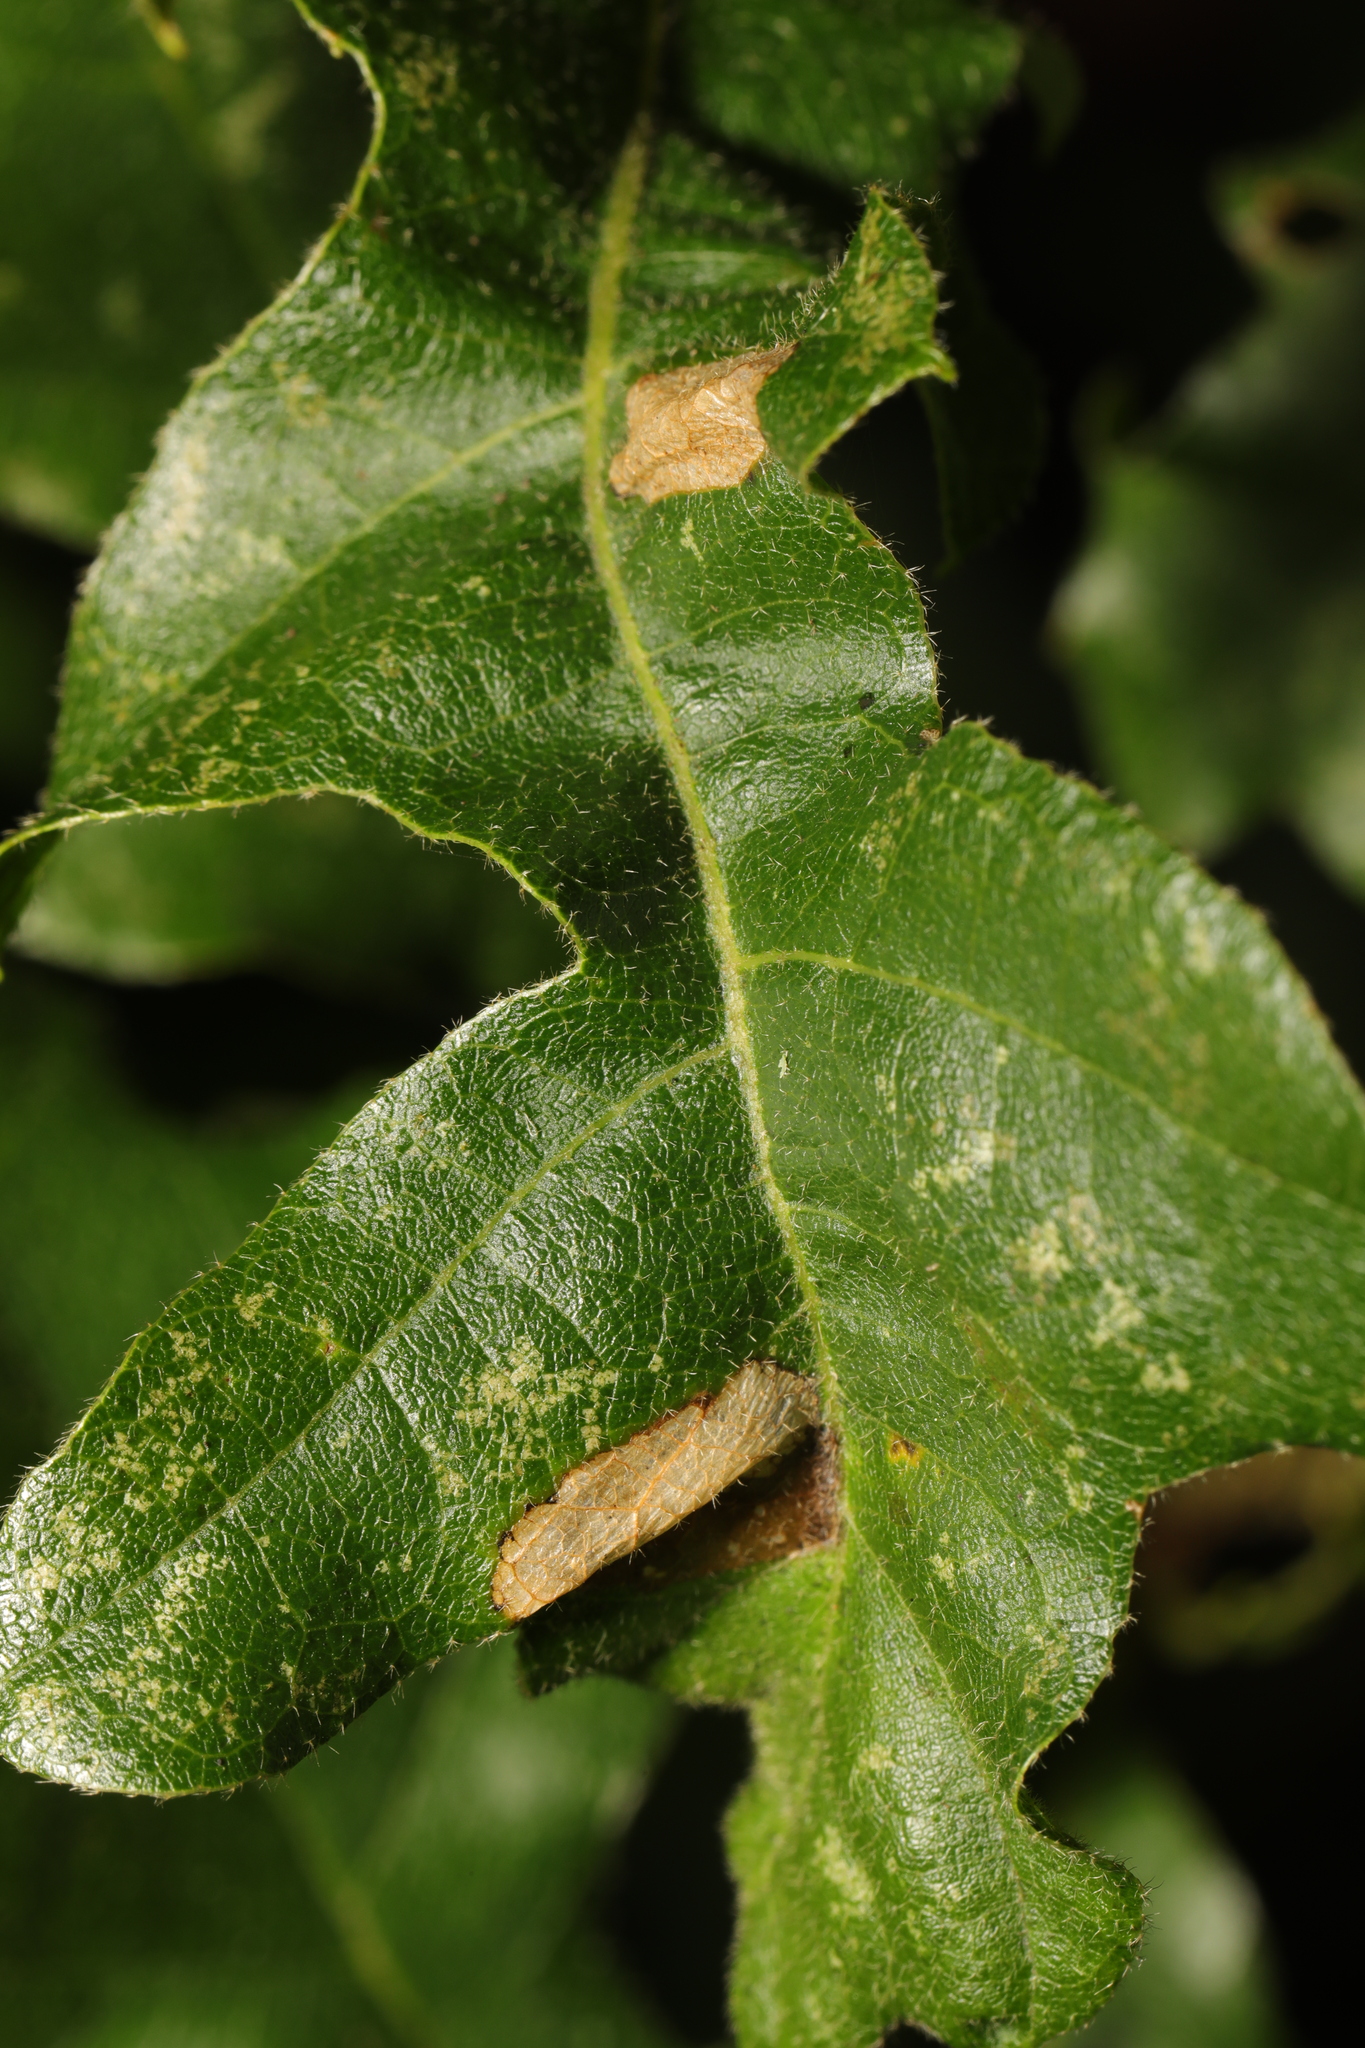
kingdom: Plantae
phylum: Tracheophyta
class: Magnoliopsida
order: Fagales
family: Fagaceae
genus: Quercus
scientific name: Quercus cerris
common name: Turkey oak
